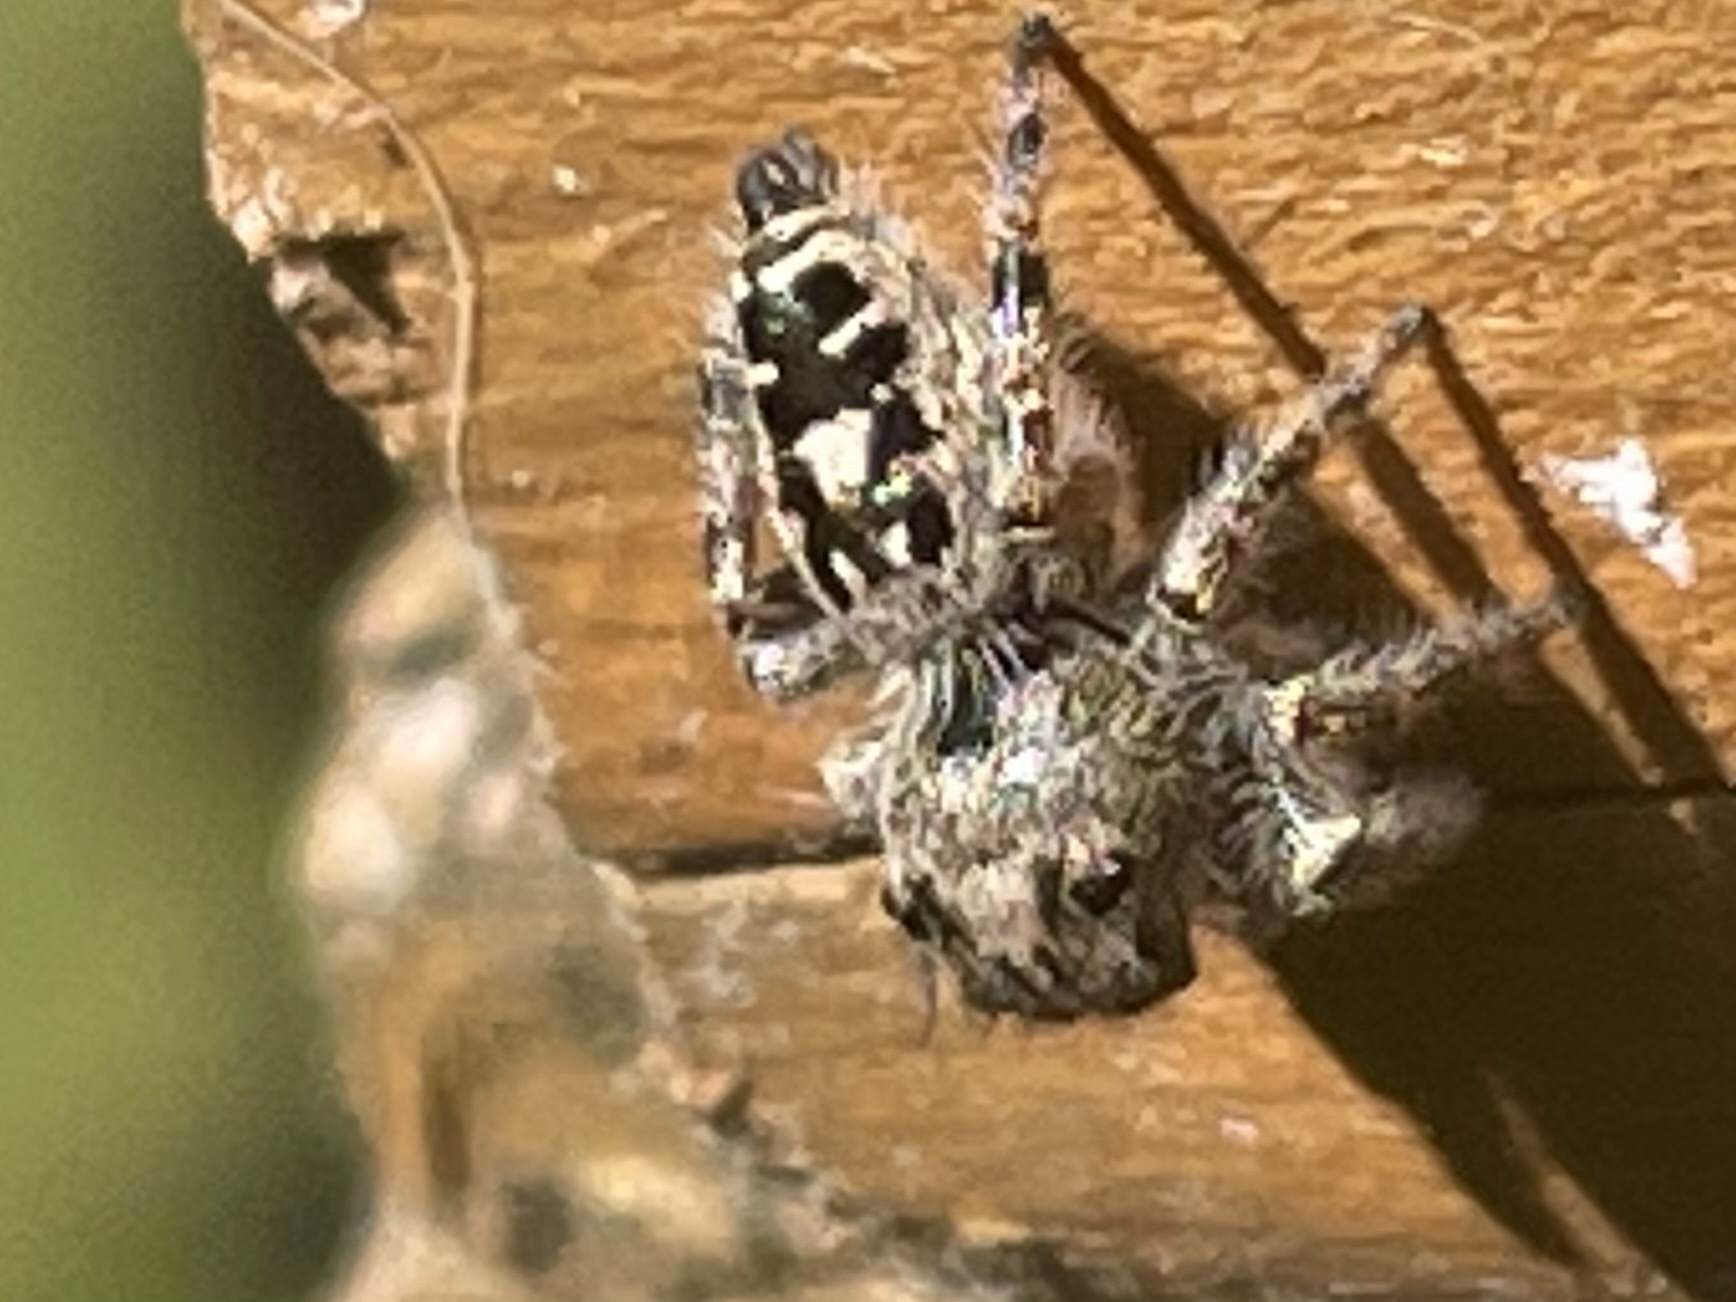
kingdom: Animalia
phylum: Arthropoda
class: Arachnida
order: Araneae
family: Salticidae
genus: Phidippus
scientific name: Phidippus putnami
